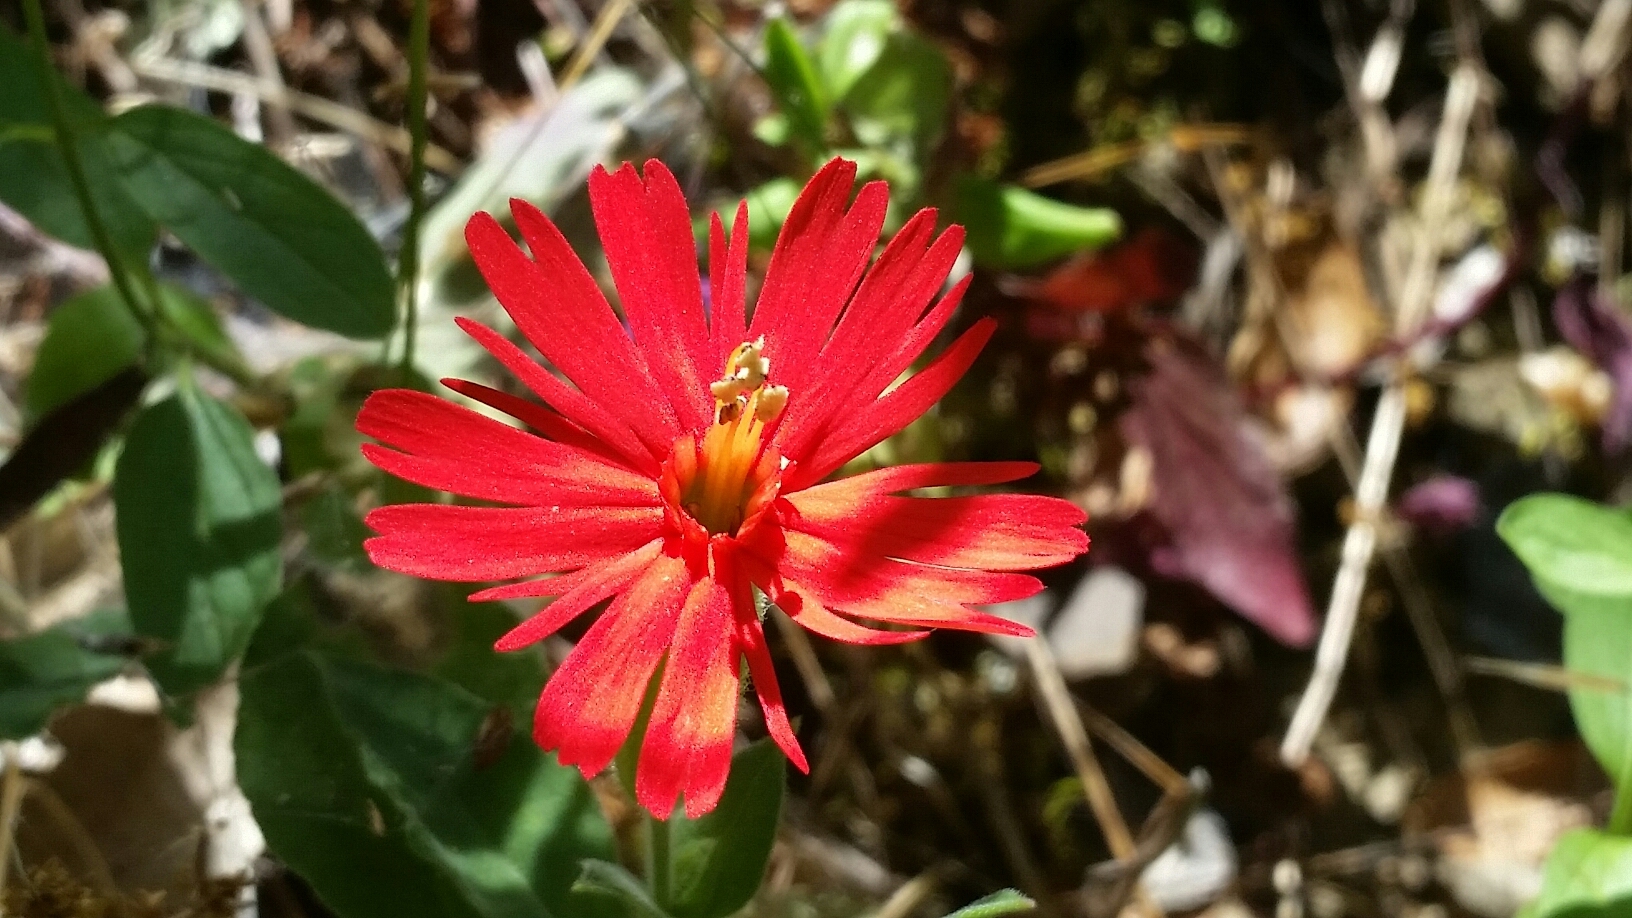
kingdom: Plantae
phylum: Tracheophyta
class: Magnoliopsida
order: Caryophyllales
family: Caryophyllaceae
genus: Silene
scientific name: Silene laciniata
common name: Indian-pink
